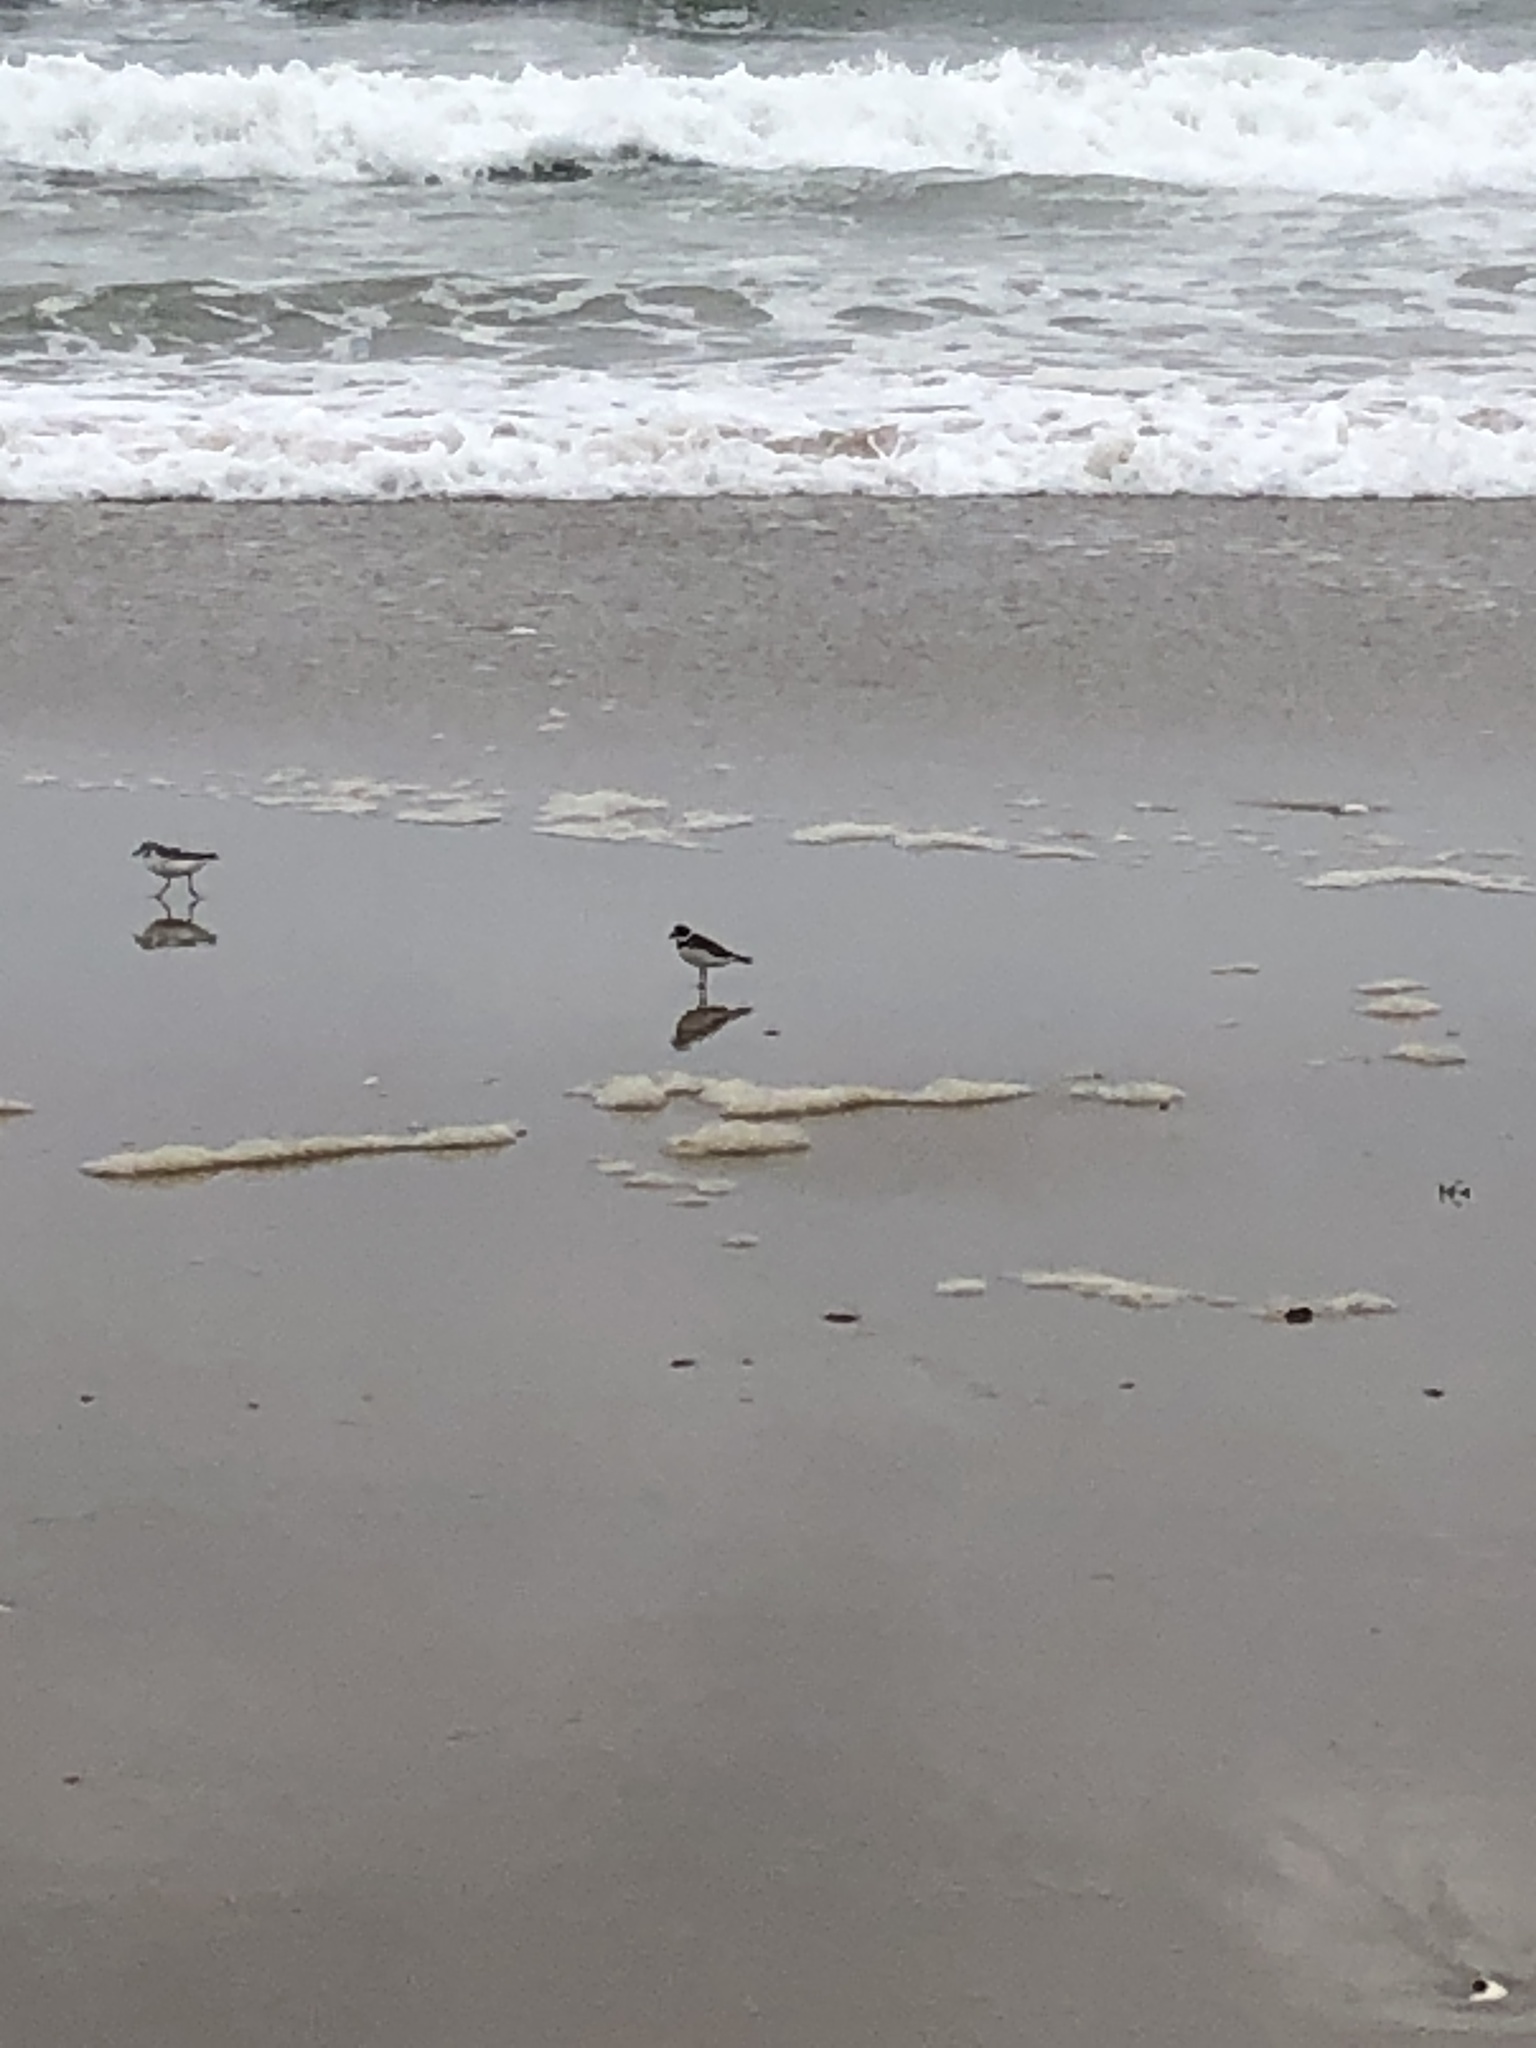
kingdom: Animalia
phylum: Chordata
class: Aves
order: Charadriiformes
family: Scolopacidae
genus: Calidris
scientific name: Calidris alba
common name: Sanderling
